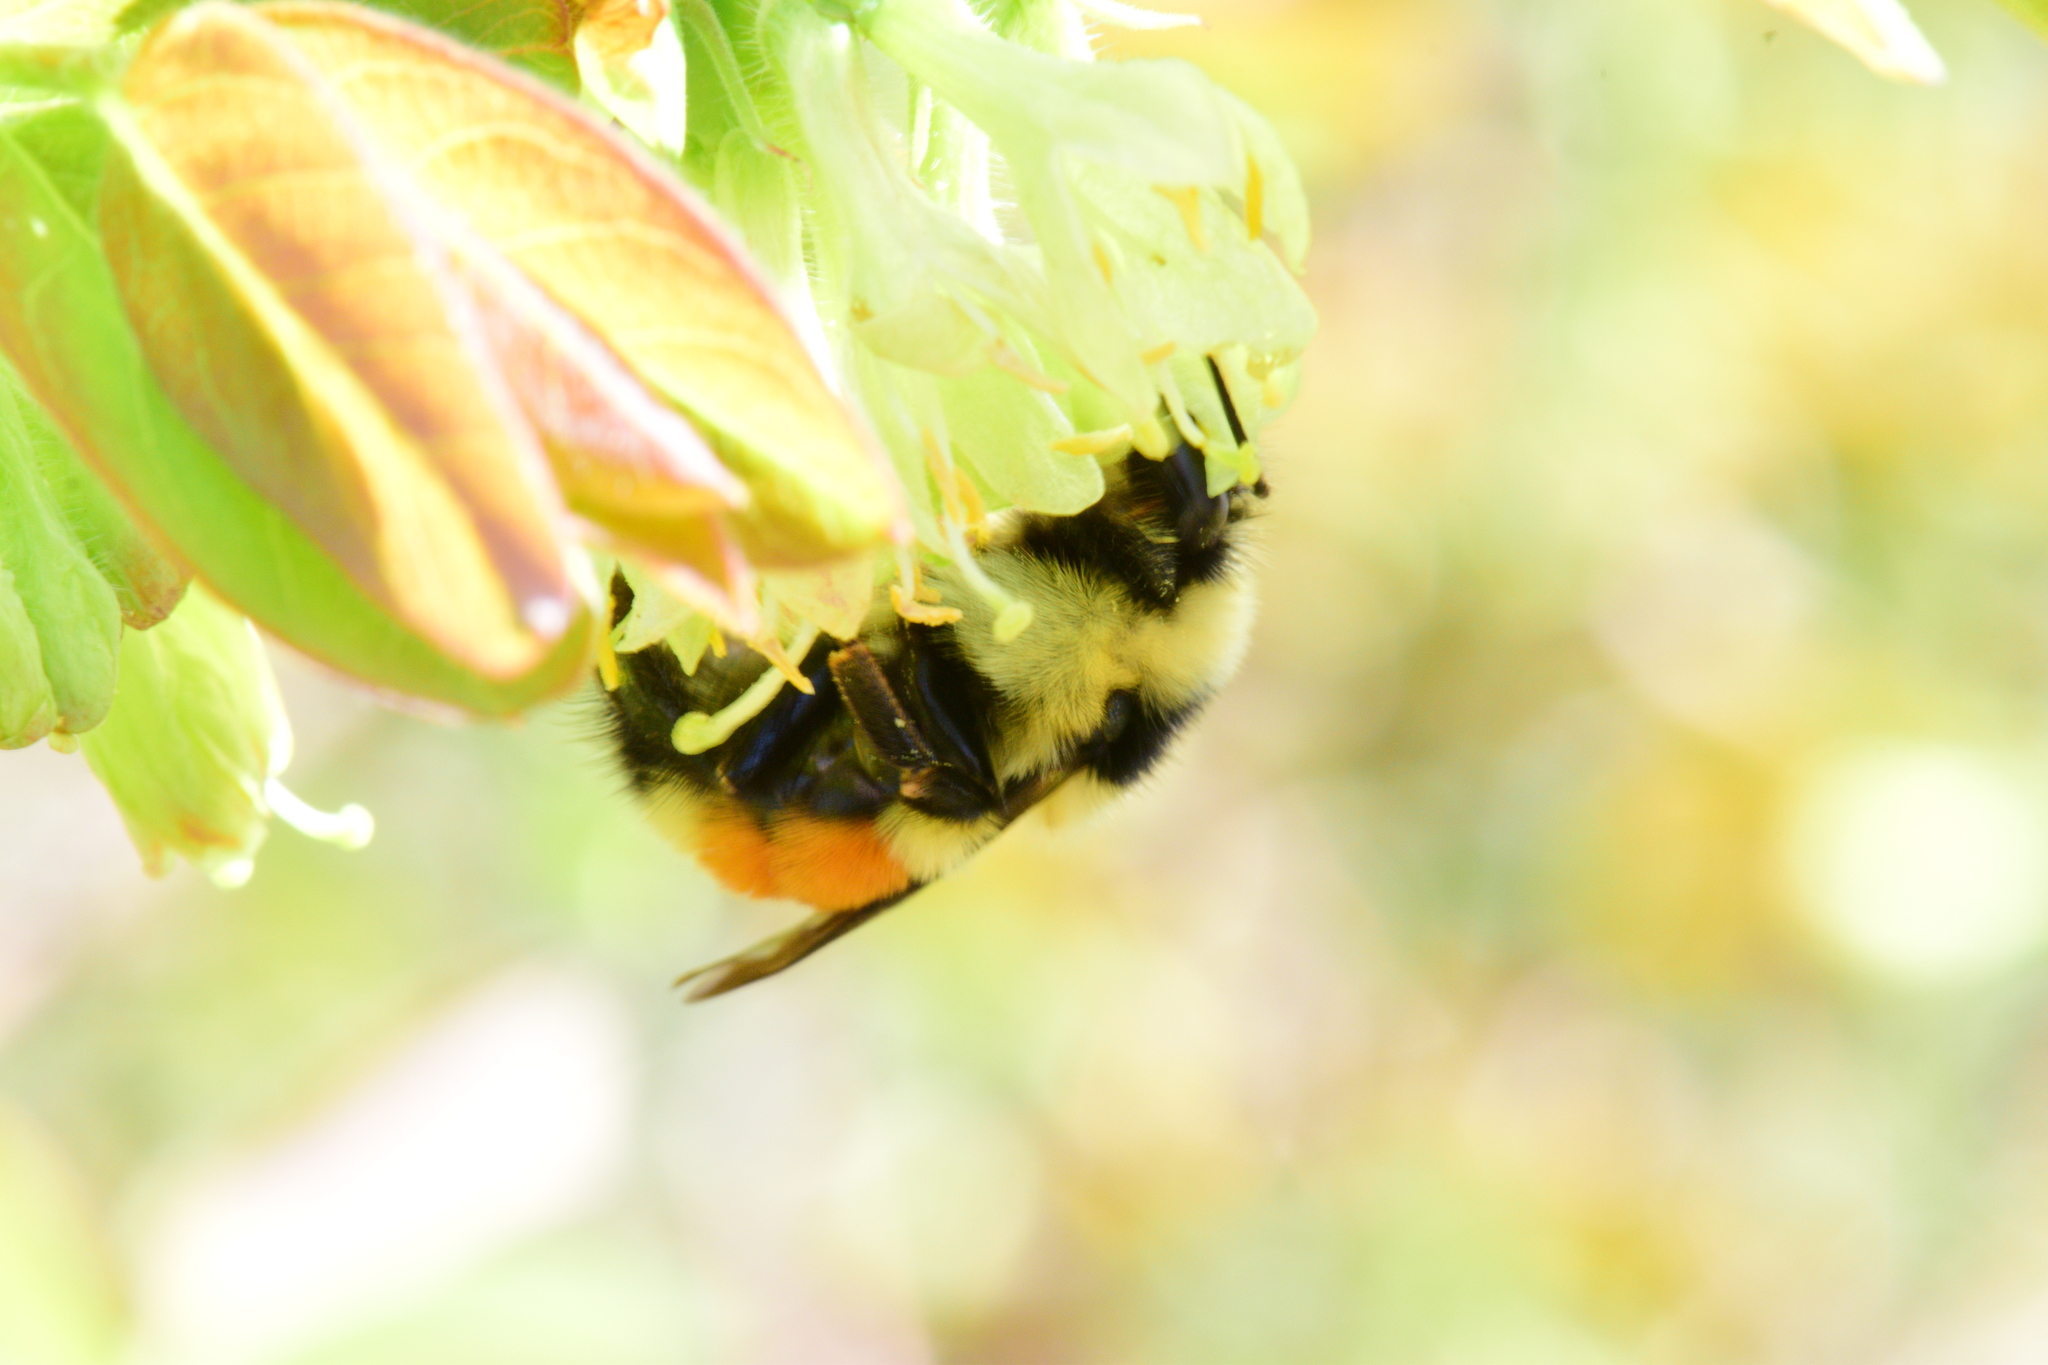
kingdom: Animalia
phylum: Arthropoda
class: Insecta
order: Hymenoptera
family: Apidae
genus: Bombus
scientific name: Bombus ternarius
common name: Tri-colored bumble bee
